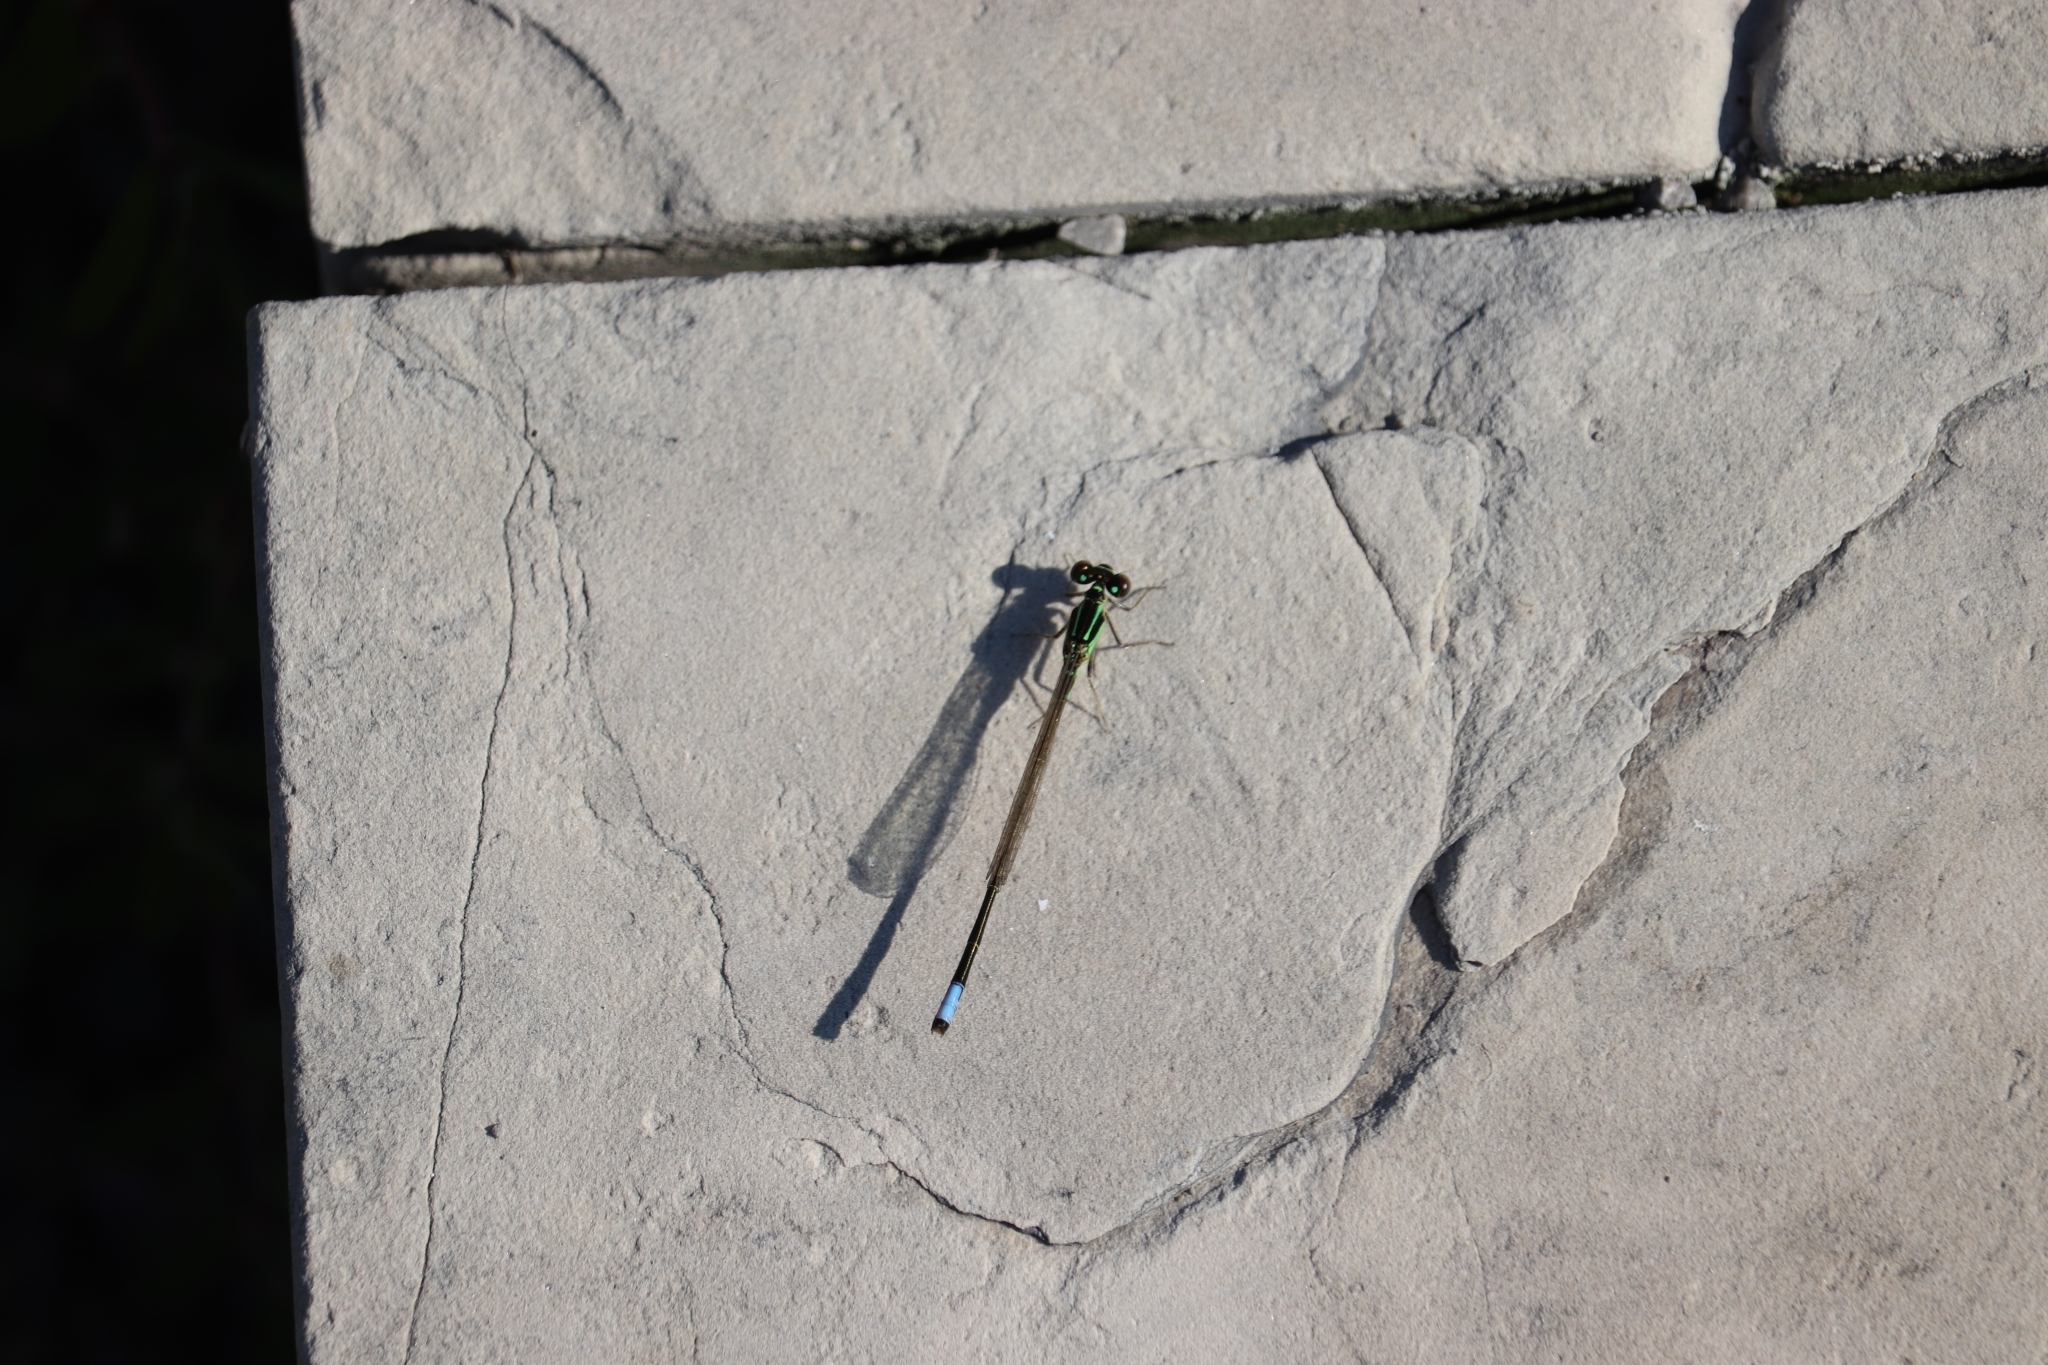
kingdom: Animalia
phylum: Arthropoda
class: Insecta
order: Odonata
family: Coenagrionidae
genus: Ischnura
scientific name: Ischnura verticalis
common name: Eastern forktail
